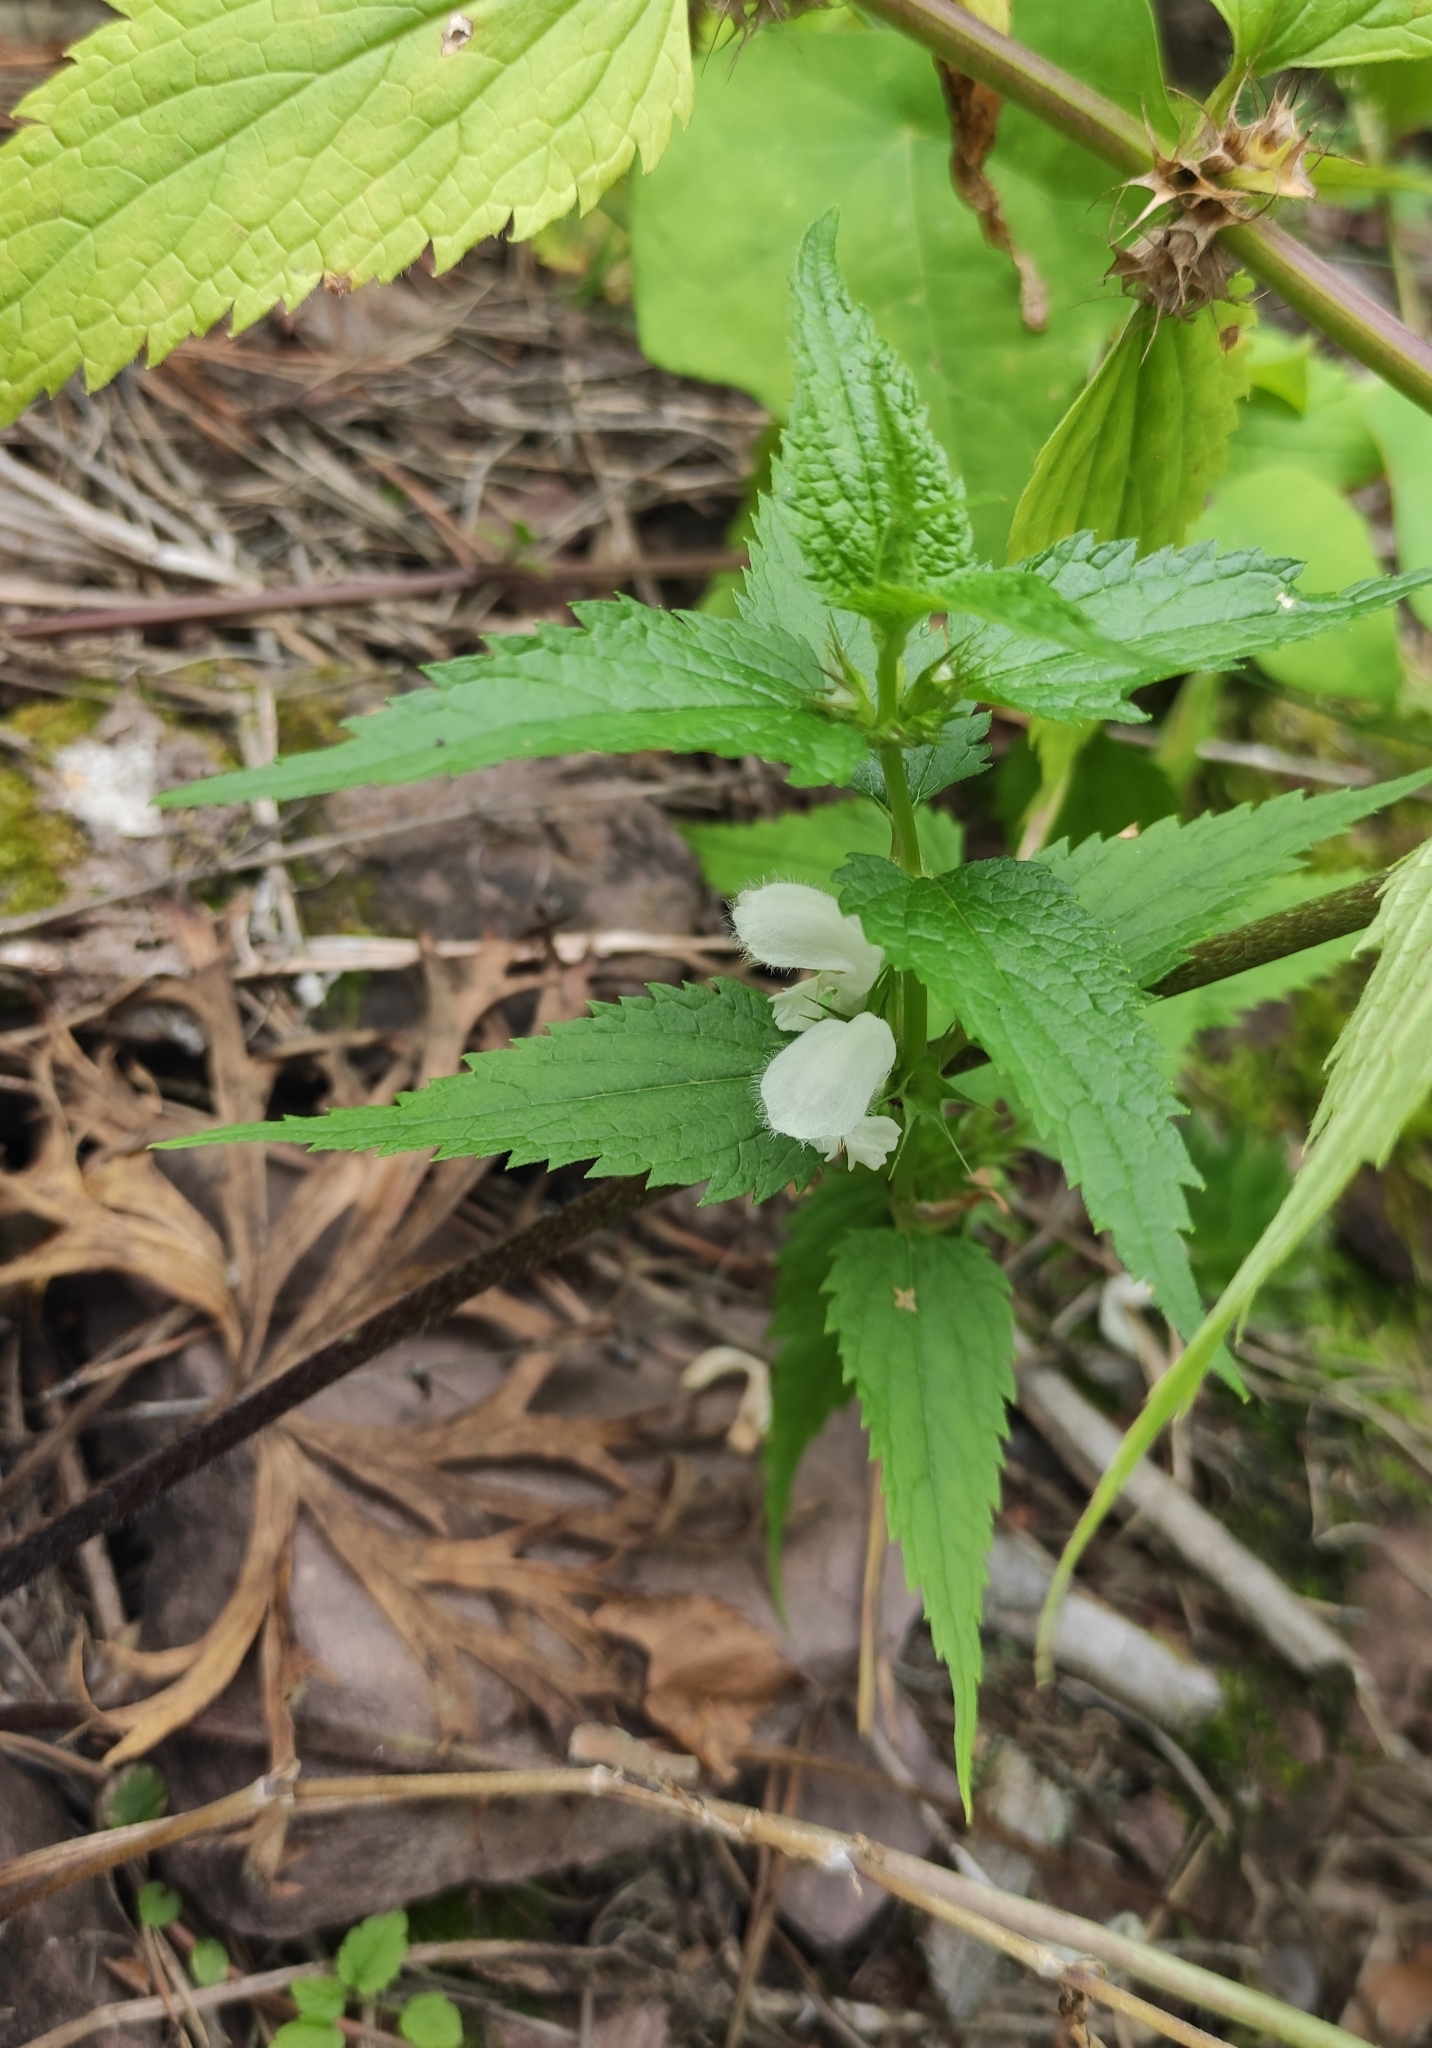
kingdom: Plantae
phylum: Tracheophyta
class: Magnoliopsida
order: Lamiales
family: Lamiaceae
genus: Lamium
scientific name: Lamium album
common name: White dead-nettle
